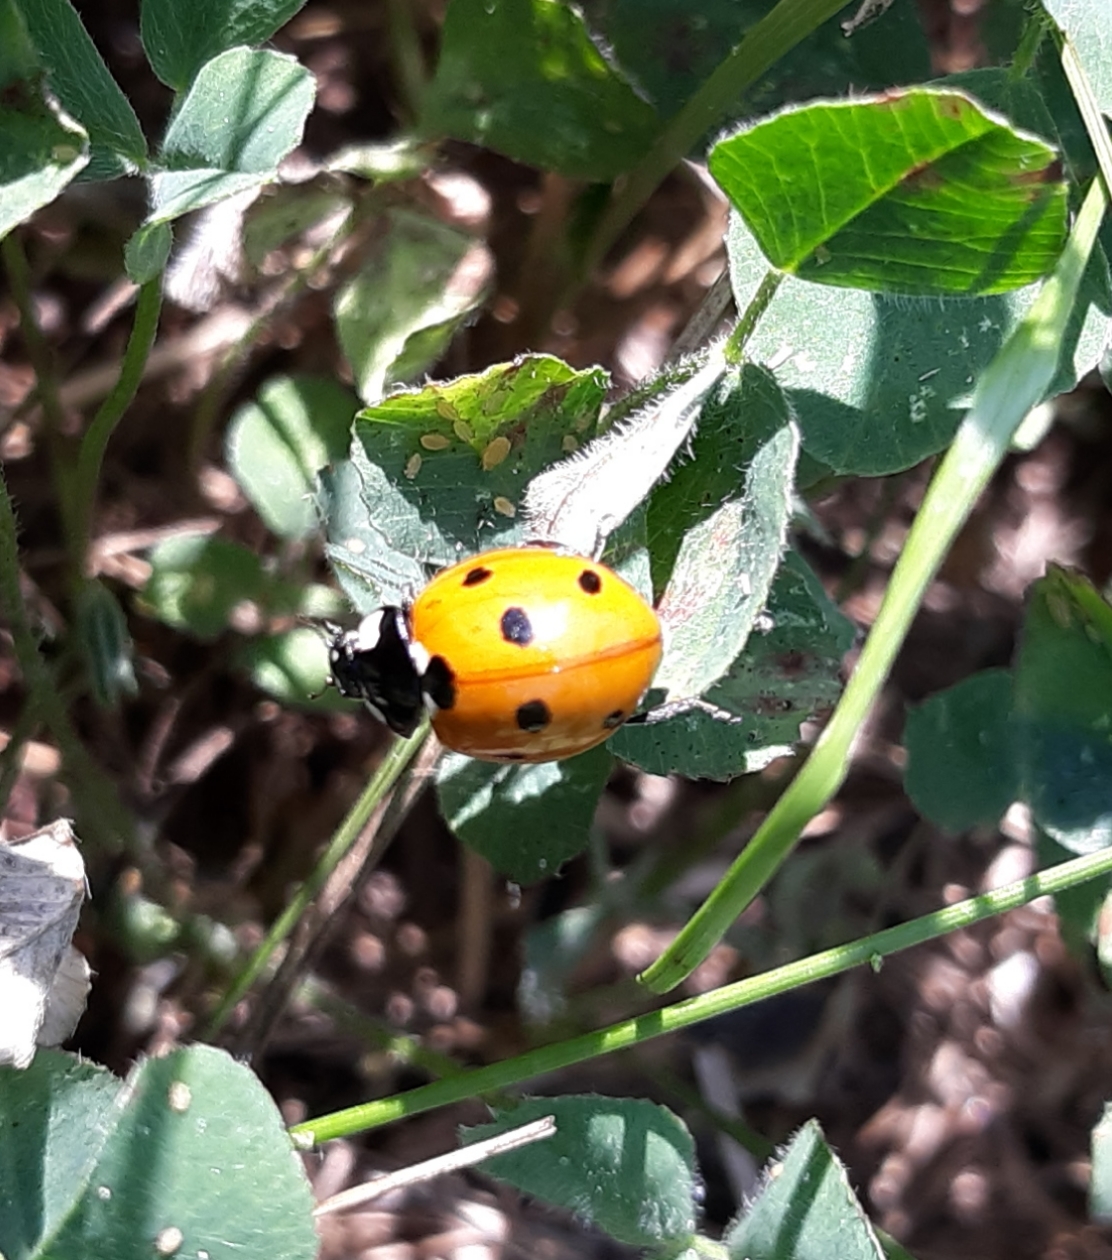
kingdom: Animalia
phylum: Arthropoda
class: Insecta
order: Coleoptera
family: Coccinellidae
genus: Coccinella
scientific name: Coccinella septempunctata
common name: Sevenspotted lady beetle
